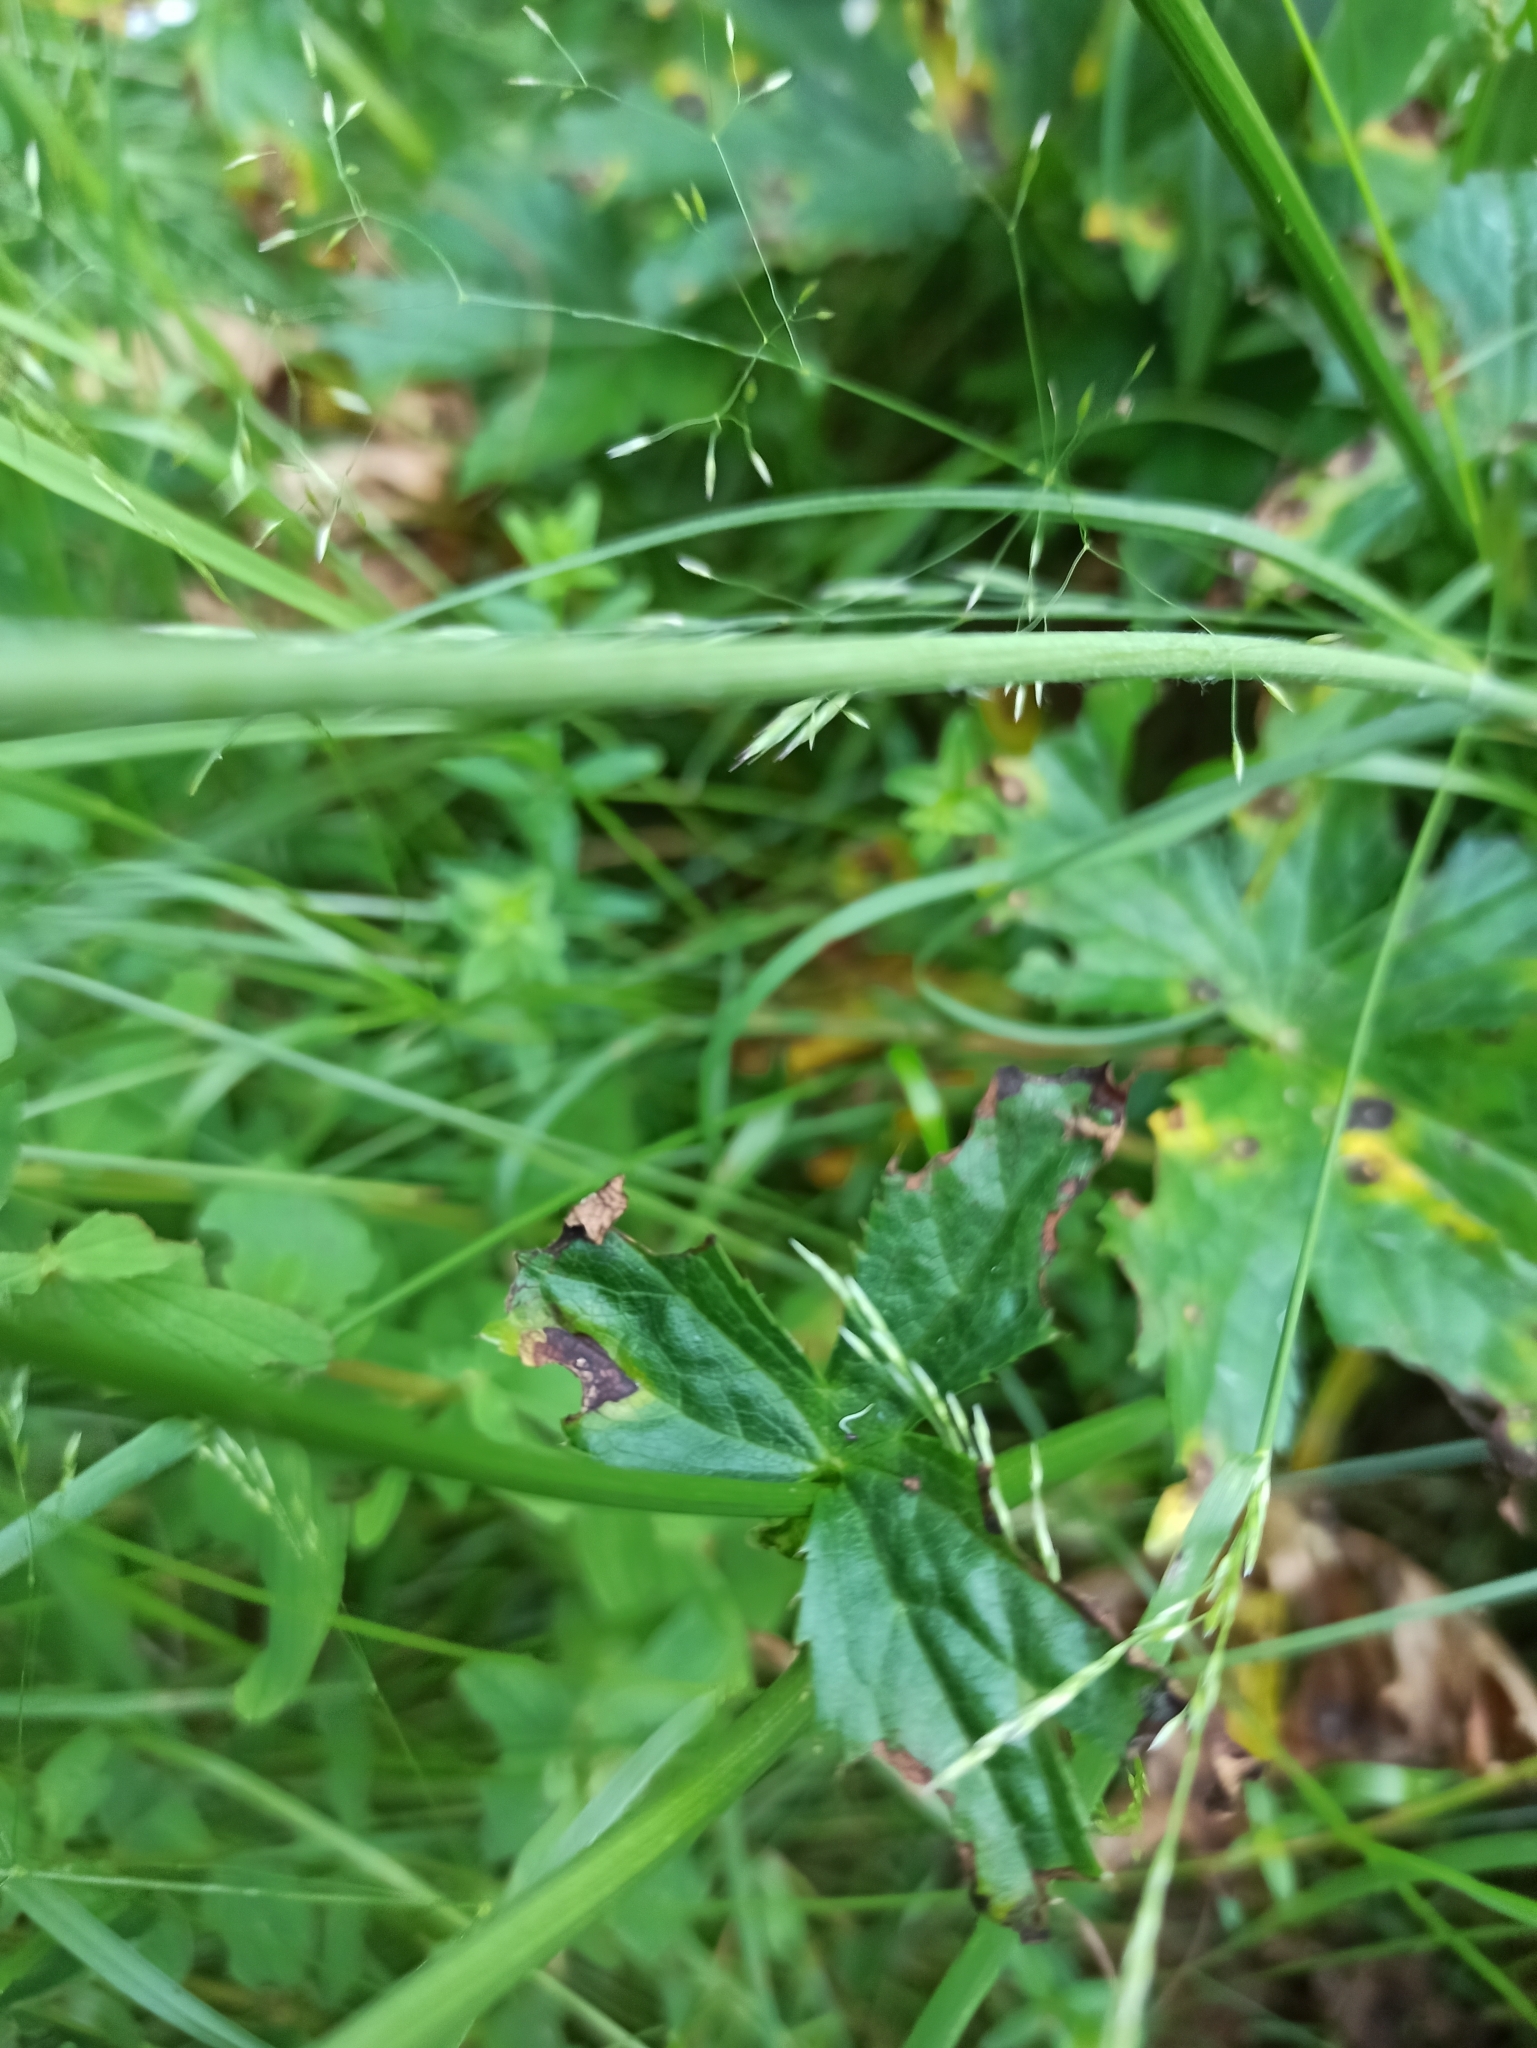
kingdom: Plantae
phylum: Tracheophyta
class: Magnoliopsida
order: Apiales
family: Apiaceae
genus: Astrantia
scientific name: Astrantia major
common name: Greater masterwort
